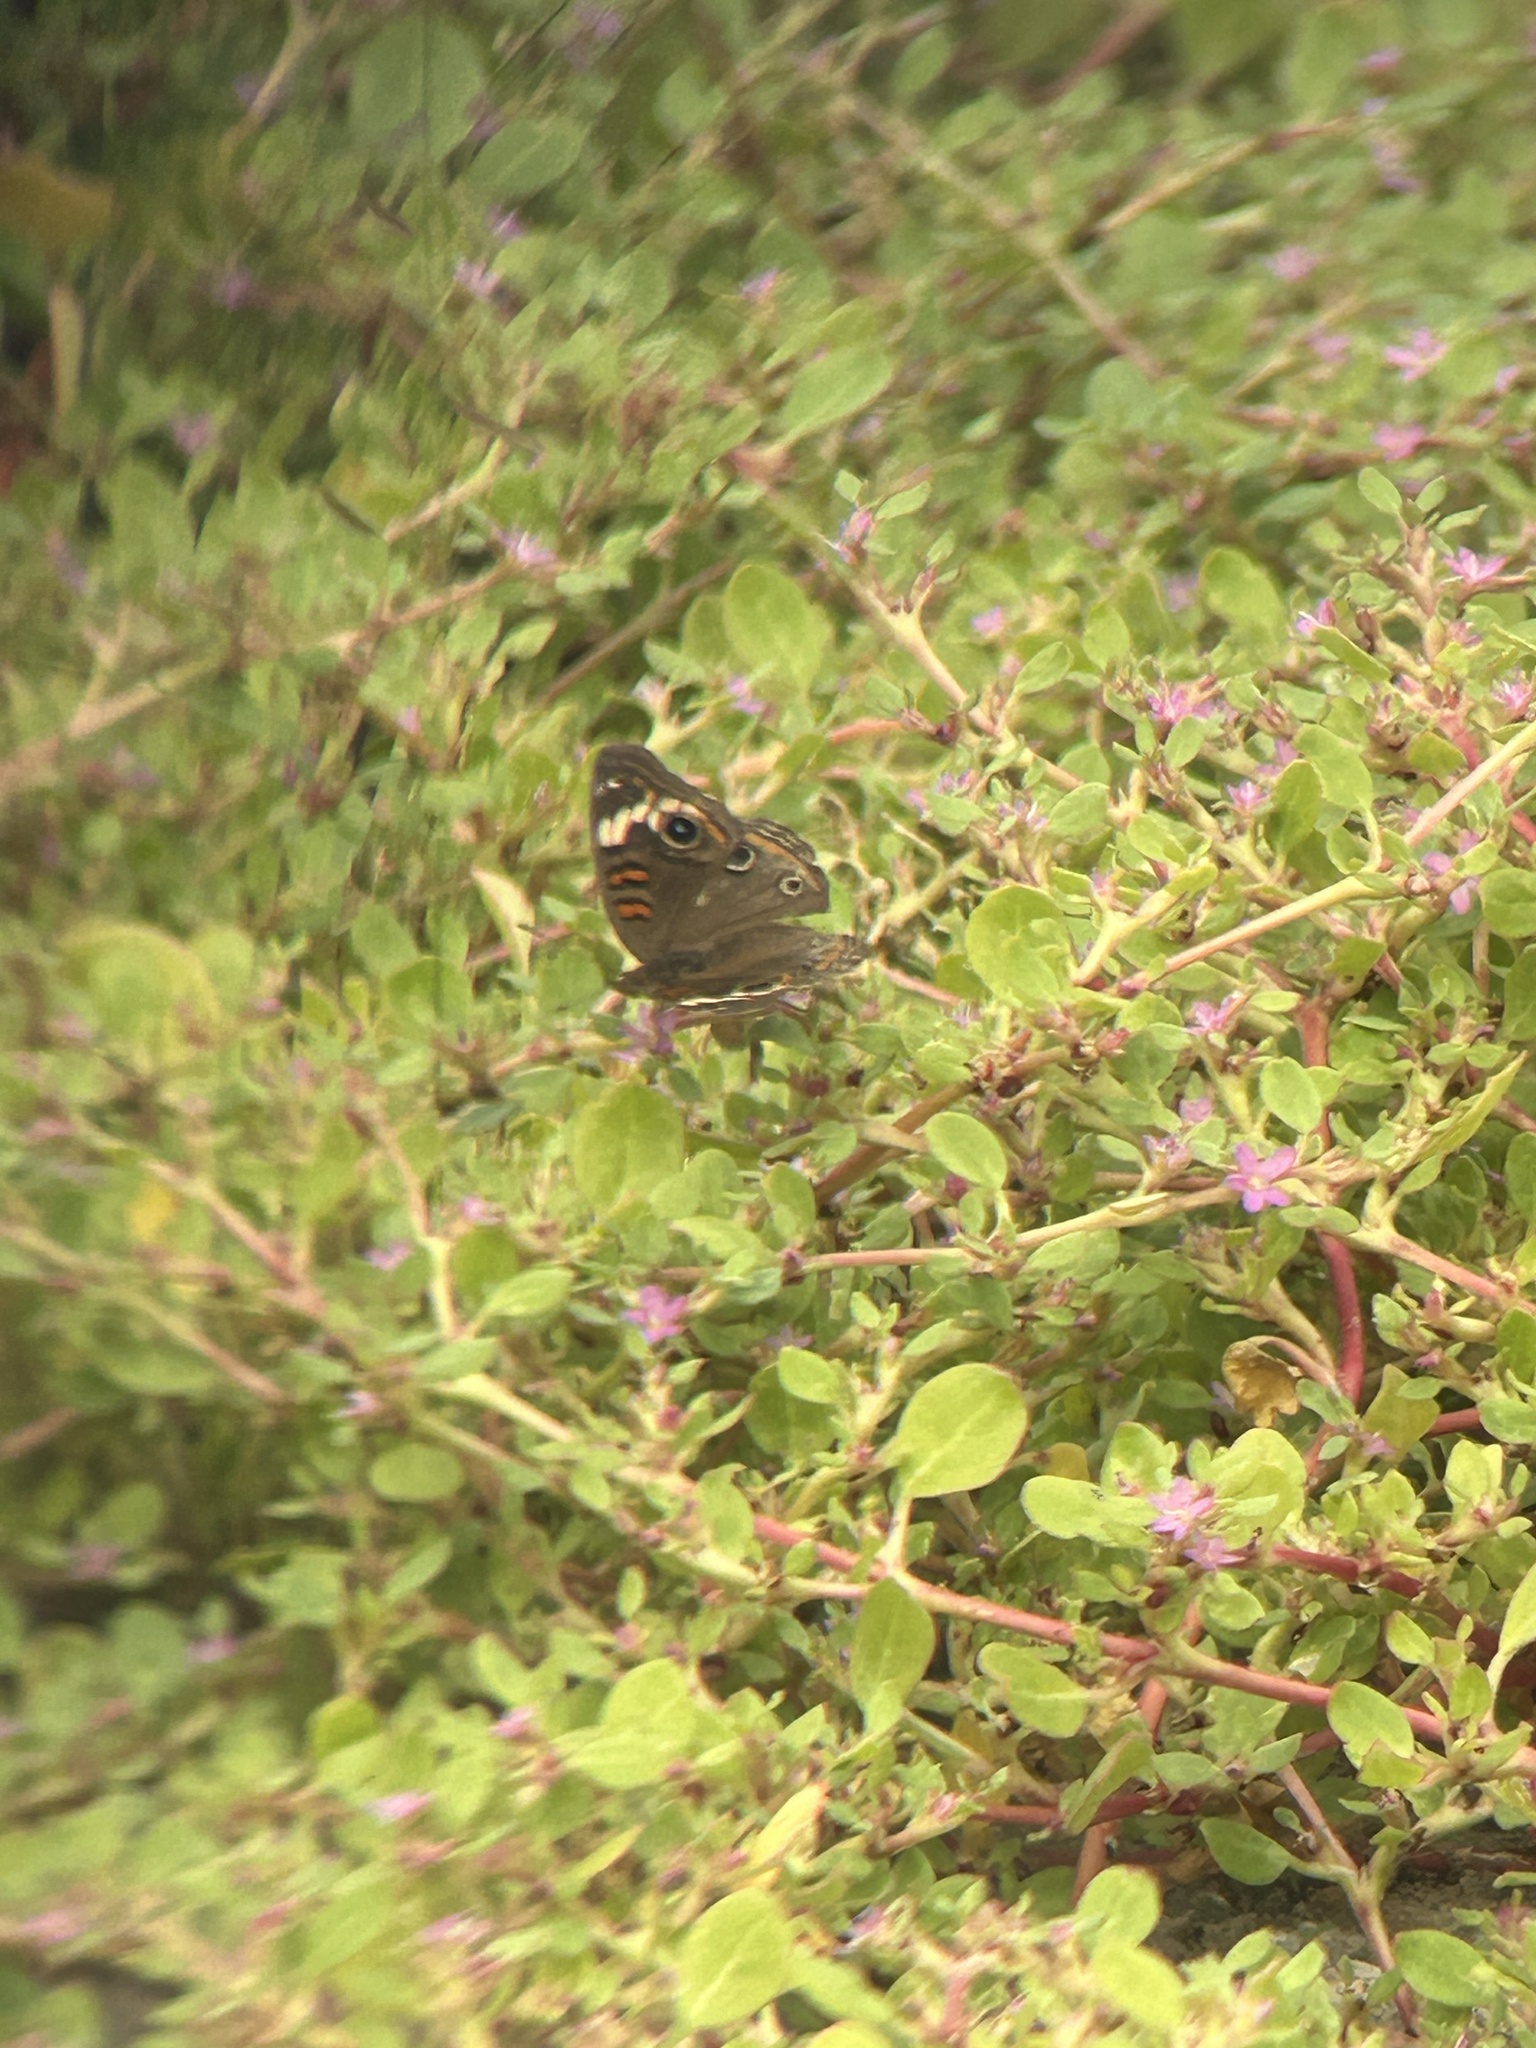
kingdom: Animalia
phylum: Arthropoda
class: Insecta
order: Lepidoptera
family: Nymphalidae
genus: Junonia
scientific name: Junonia pacoma
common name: Pacific mangrove buckeye
